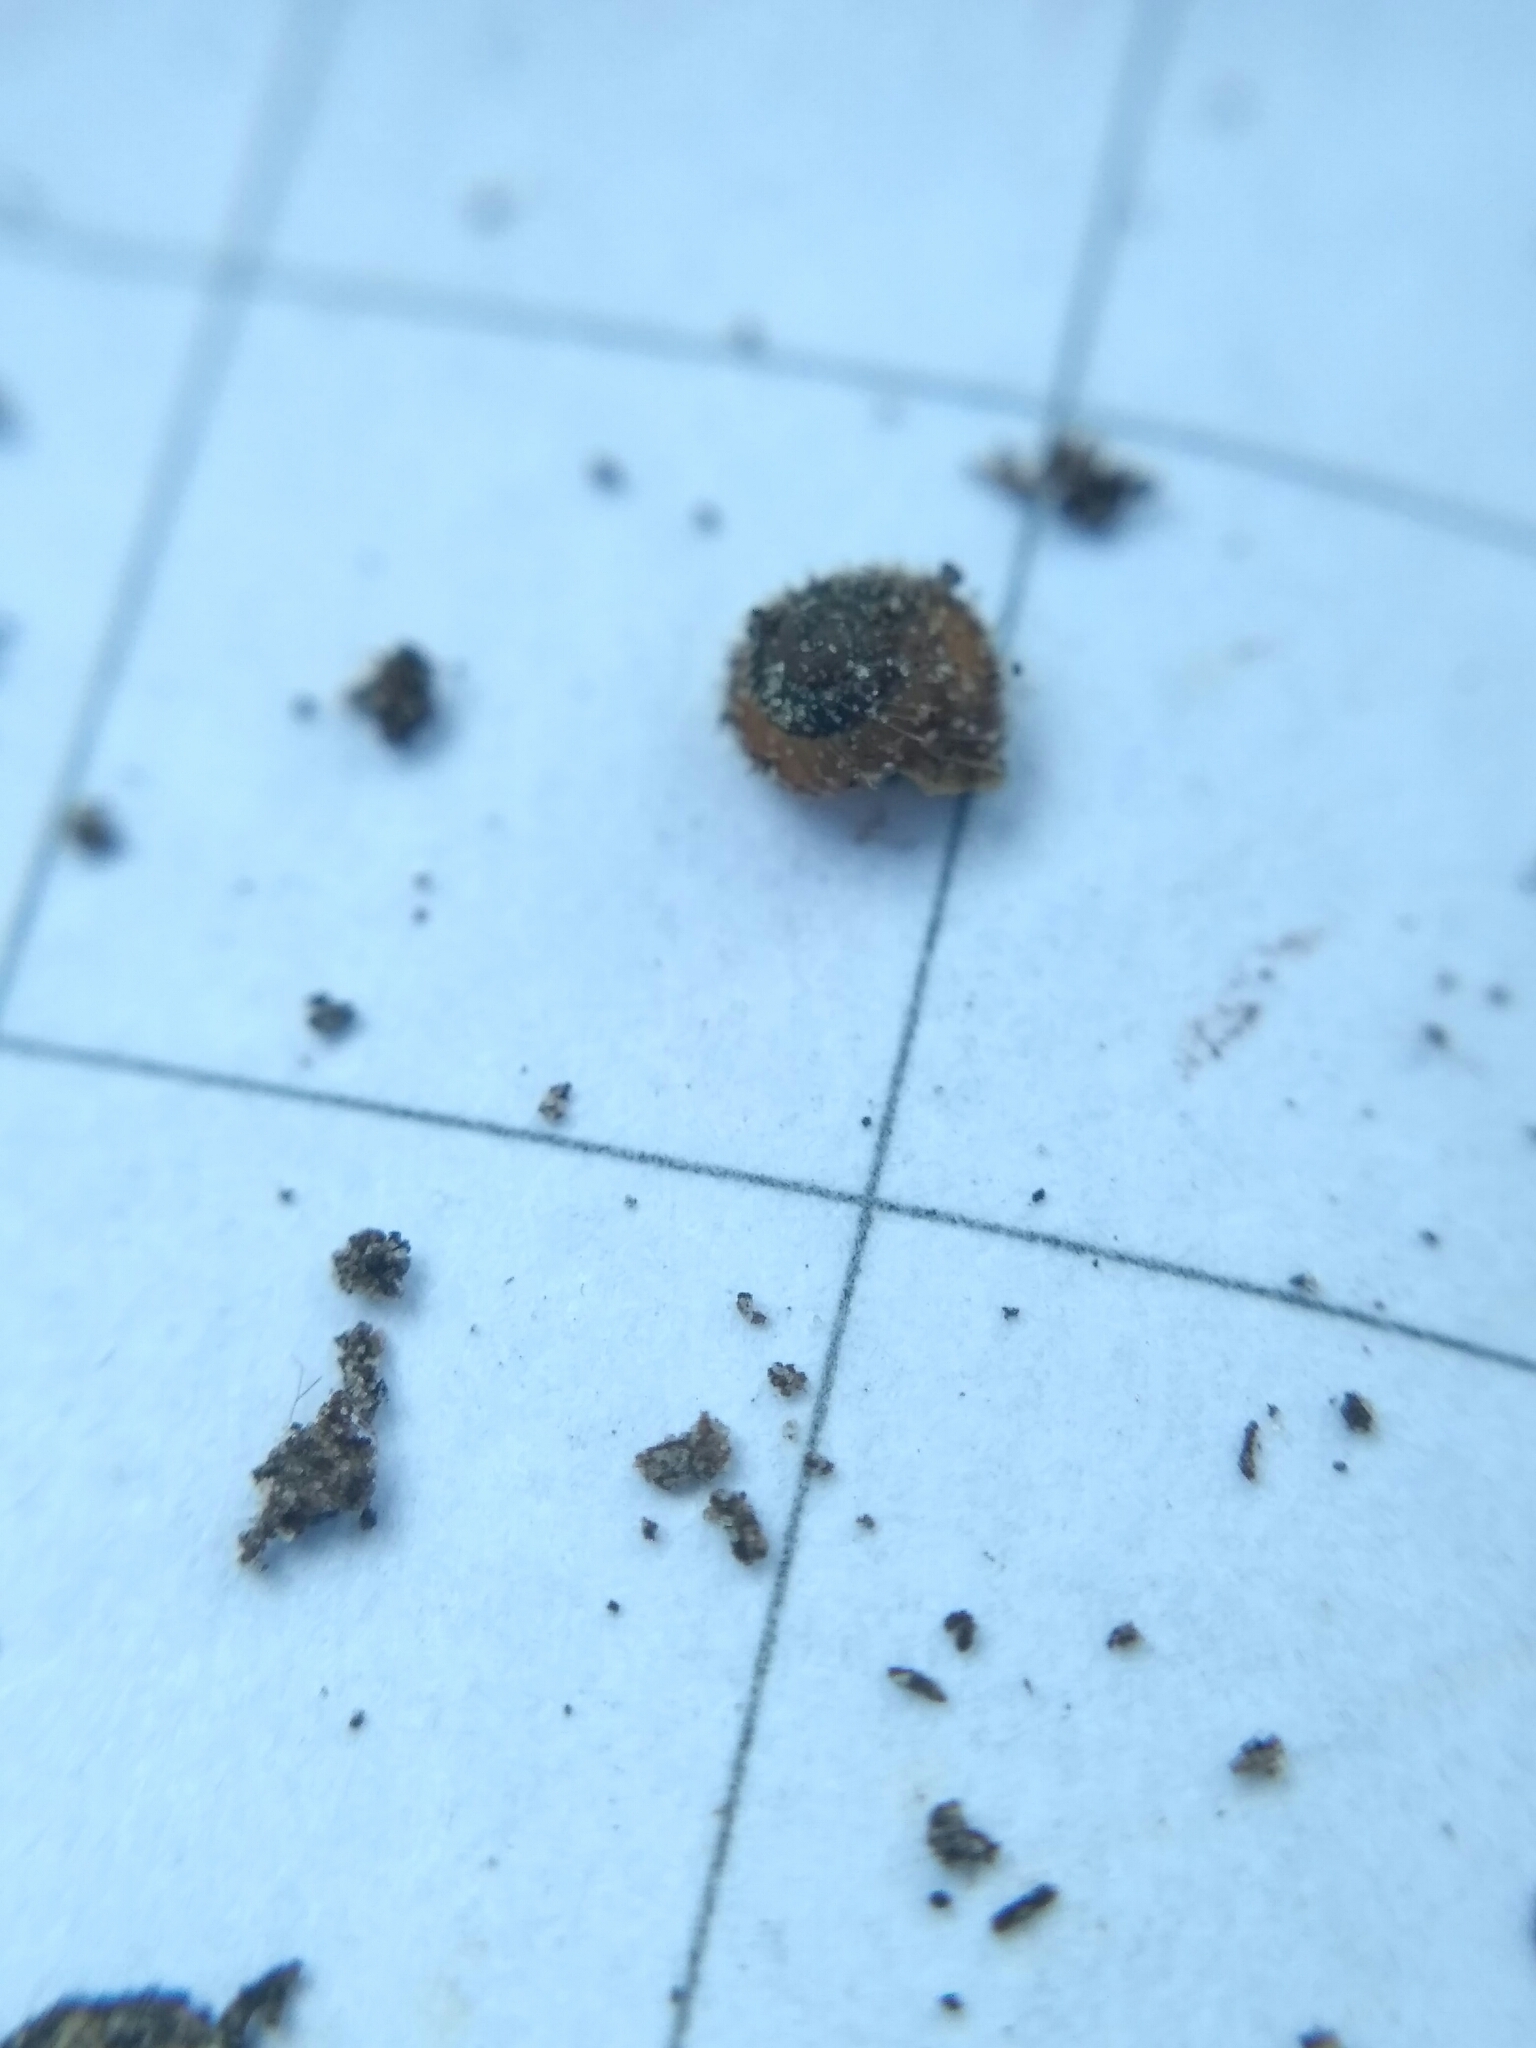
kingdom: Animalia
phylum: Mollusca
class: Gastropoda
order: Stylommatophora
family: Valloniidae
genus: Acanthinula
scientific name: Acanthinula aculeata
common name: Prickly snail
